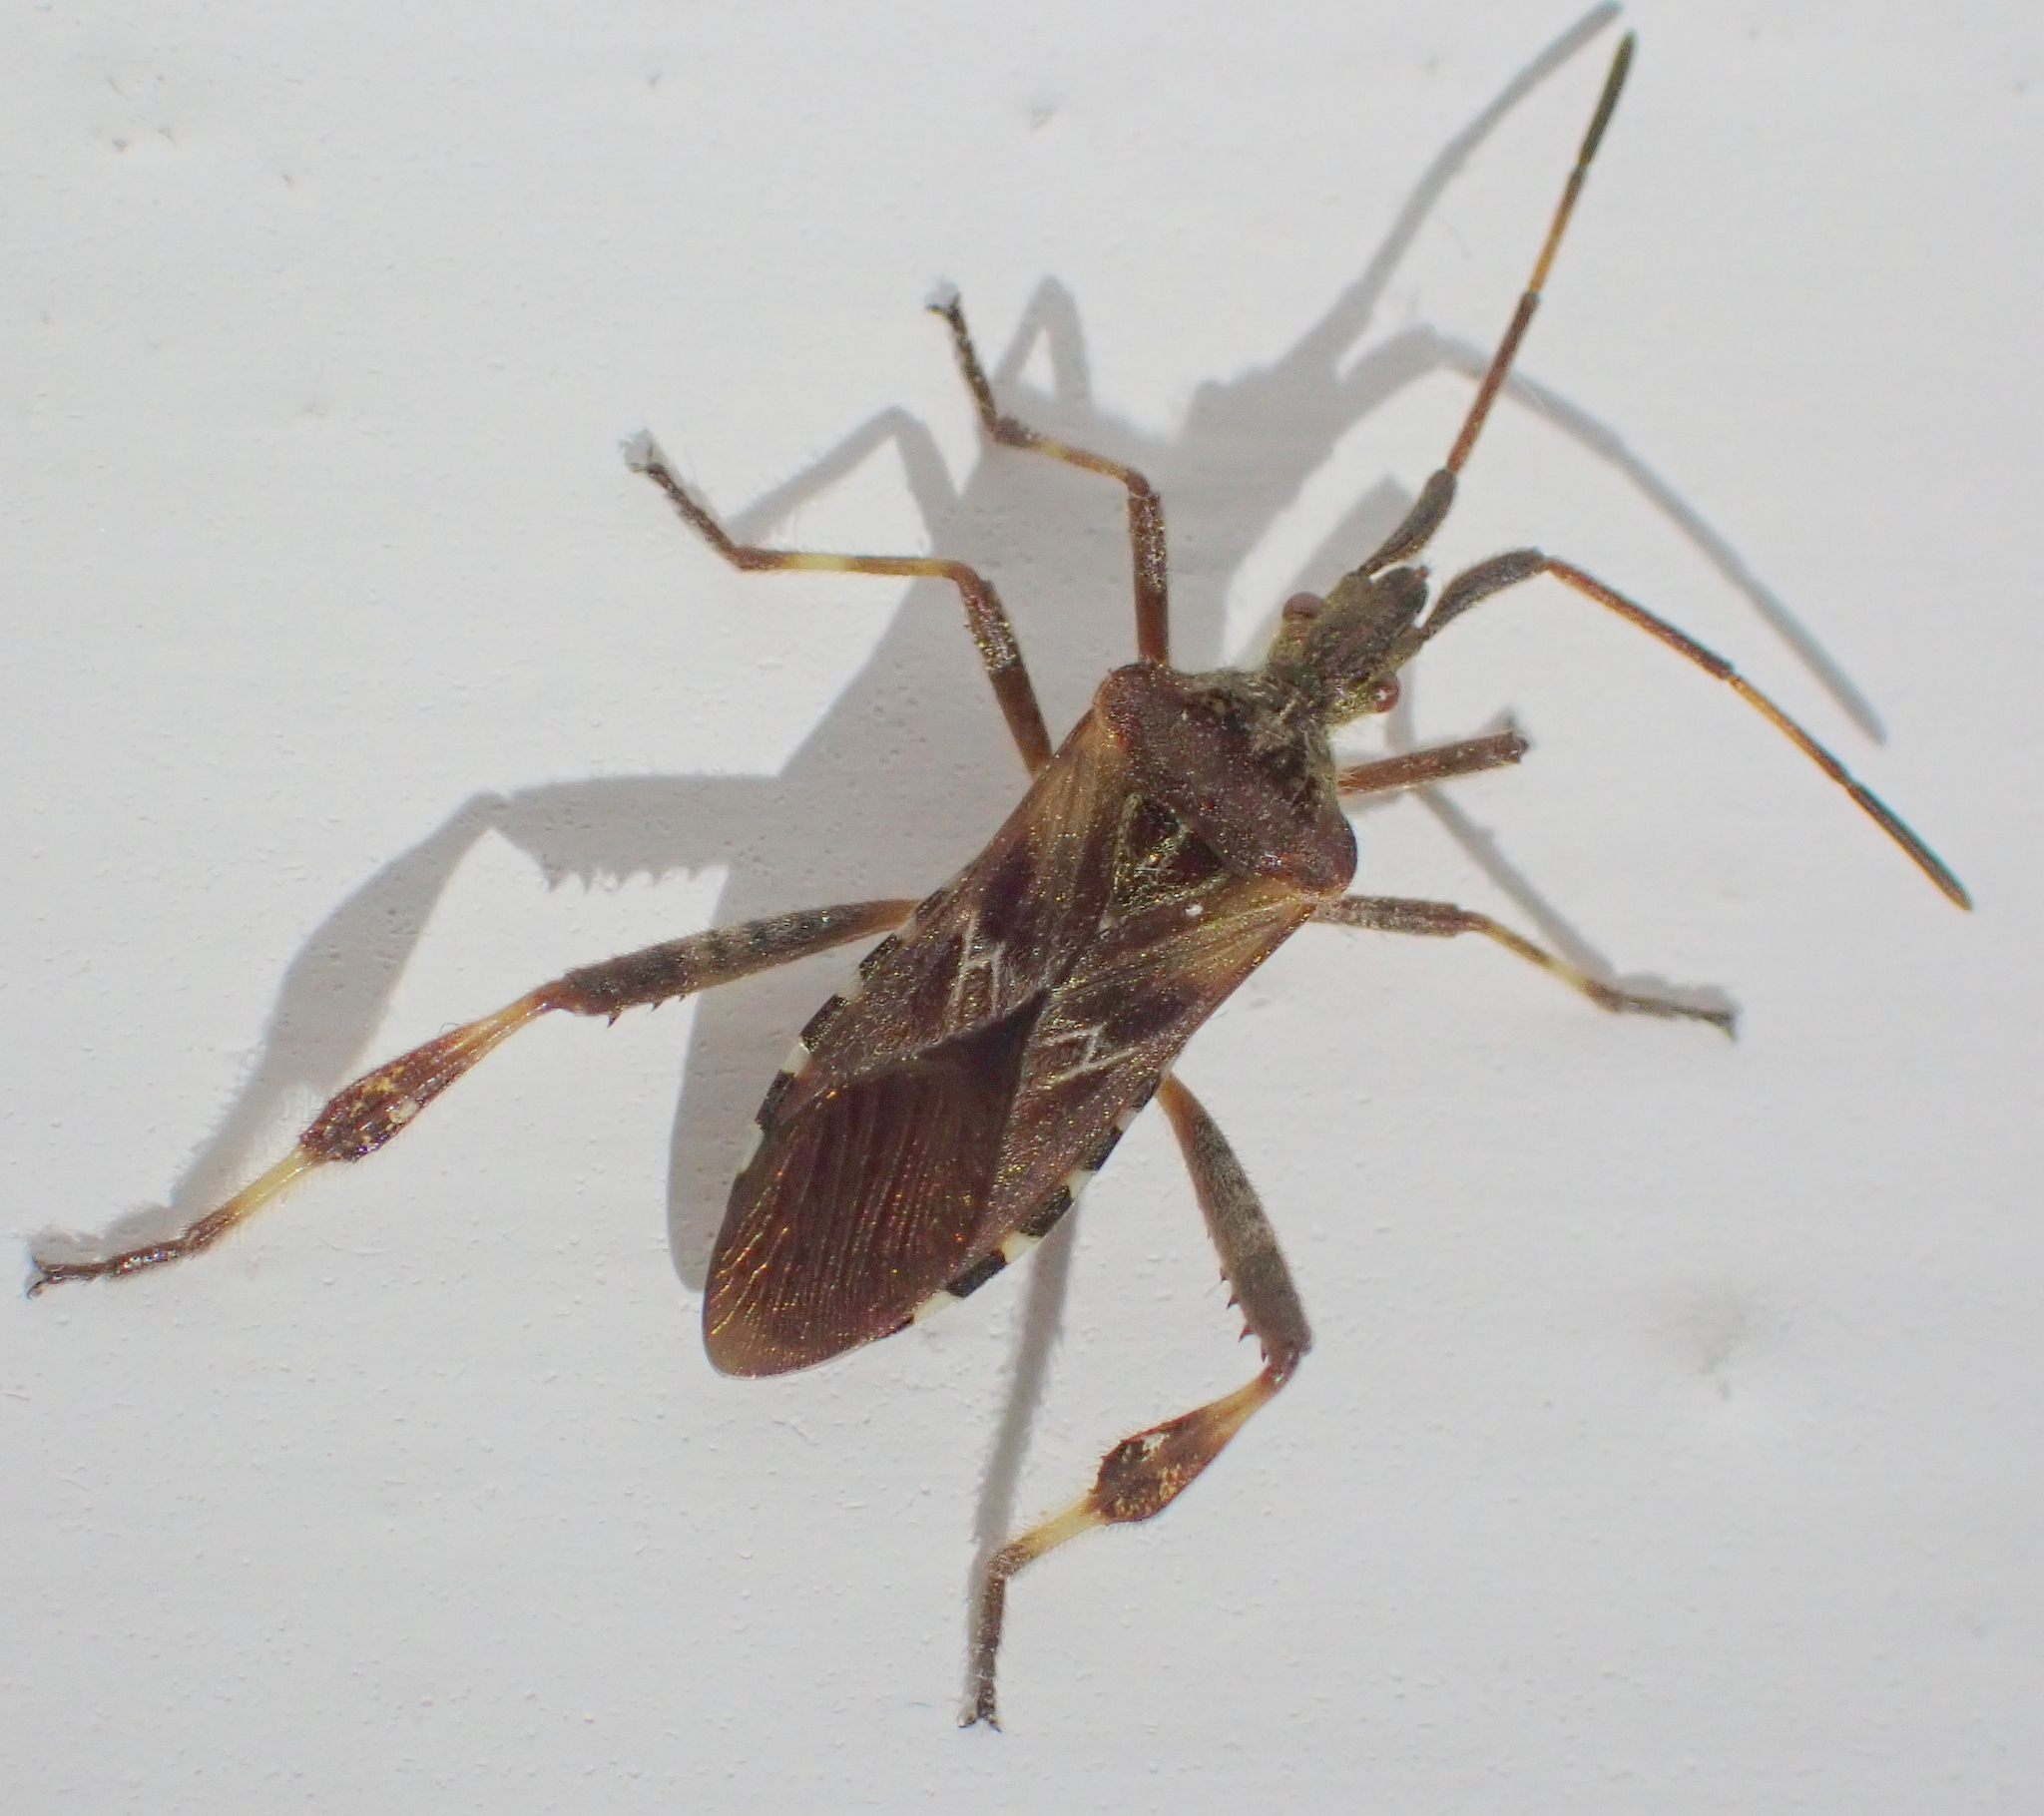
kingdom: Animalia
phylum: Arthropoda
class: Insecta
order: Hemiptera
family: Coreidae
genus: Leptoglossus
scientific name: Leptoglossus occidentalis
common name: Western conifer-seed bug
